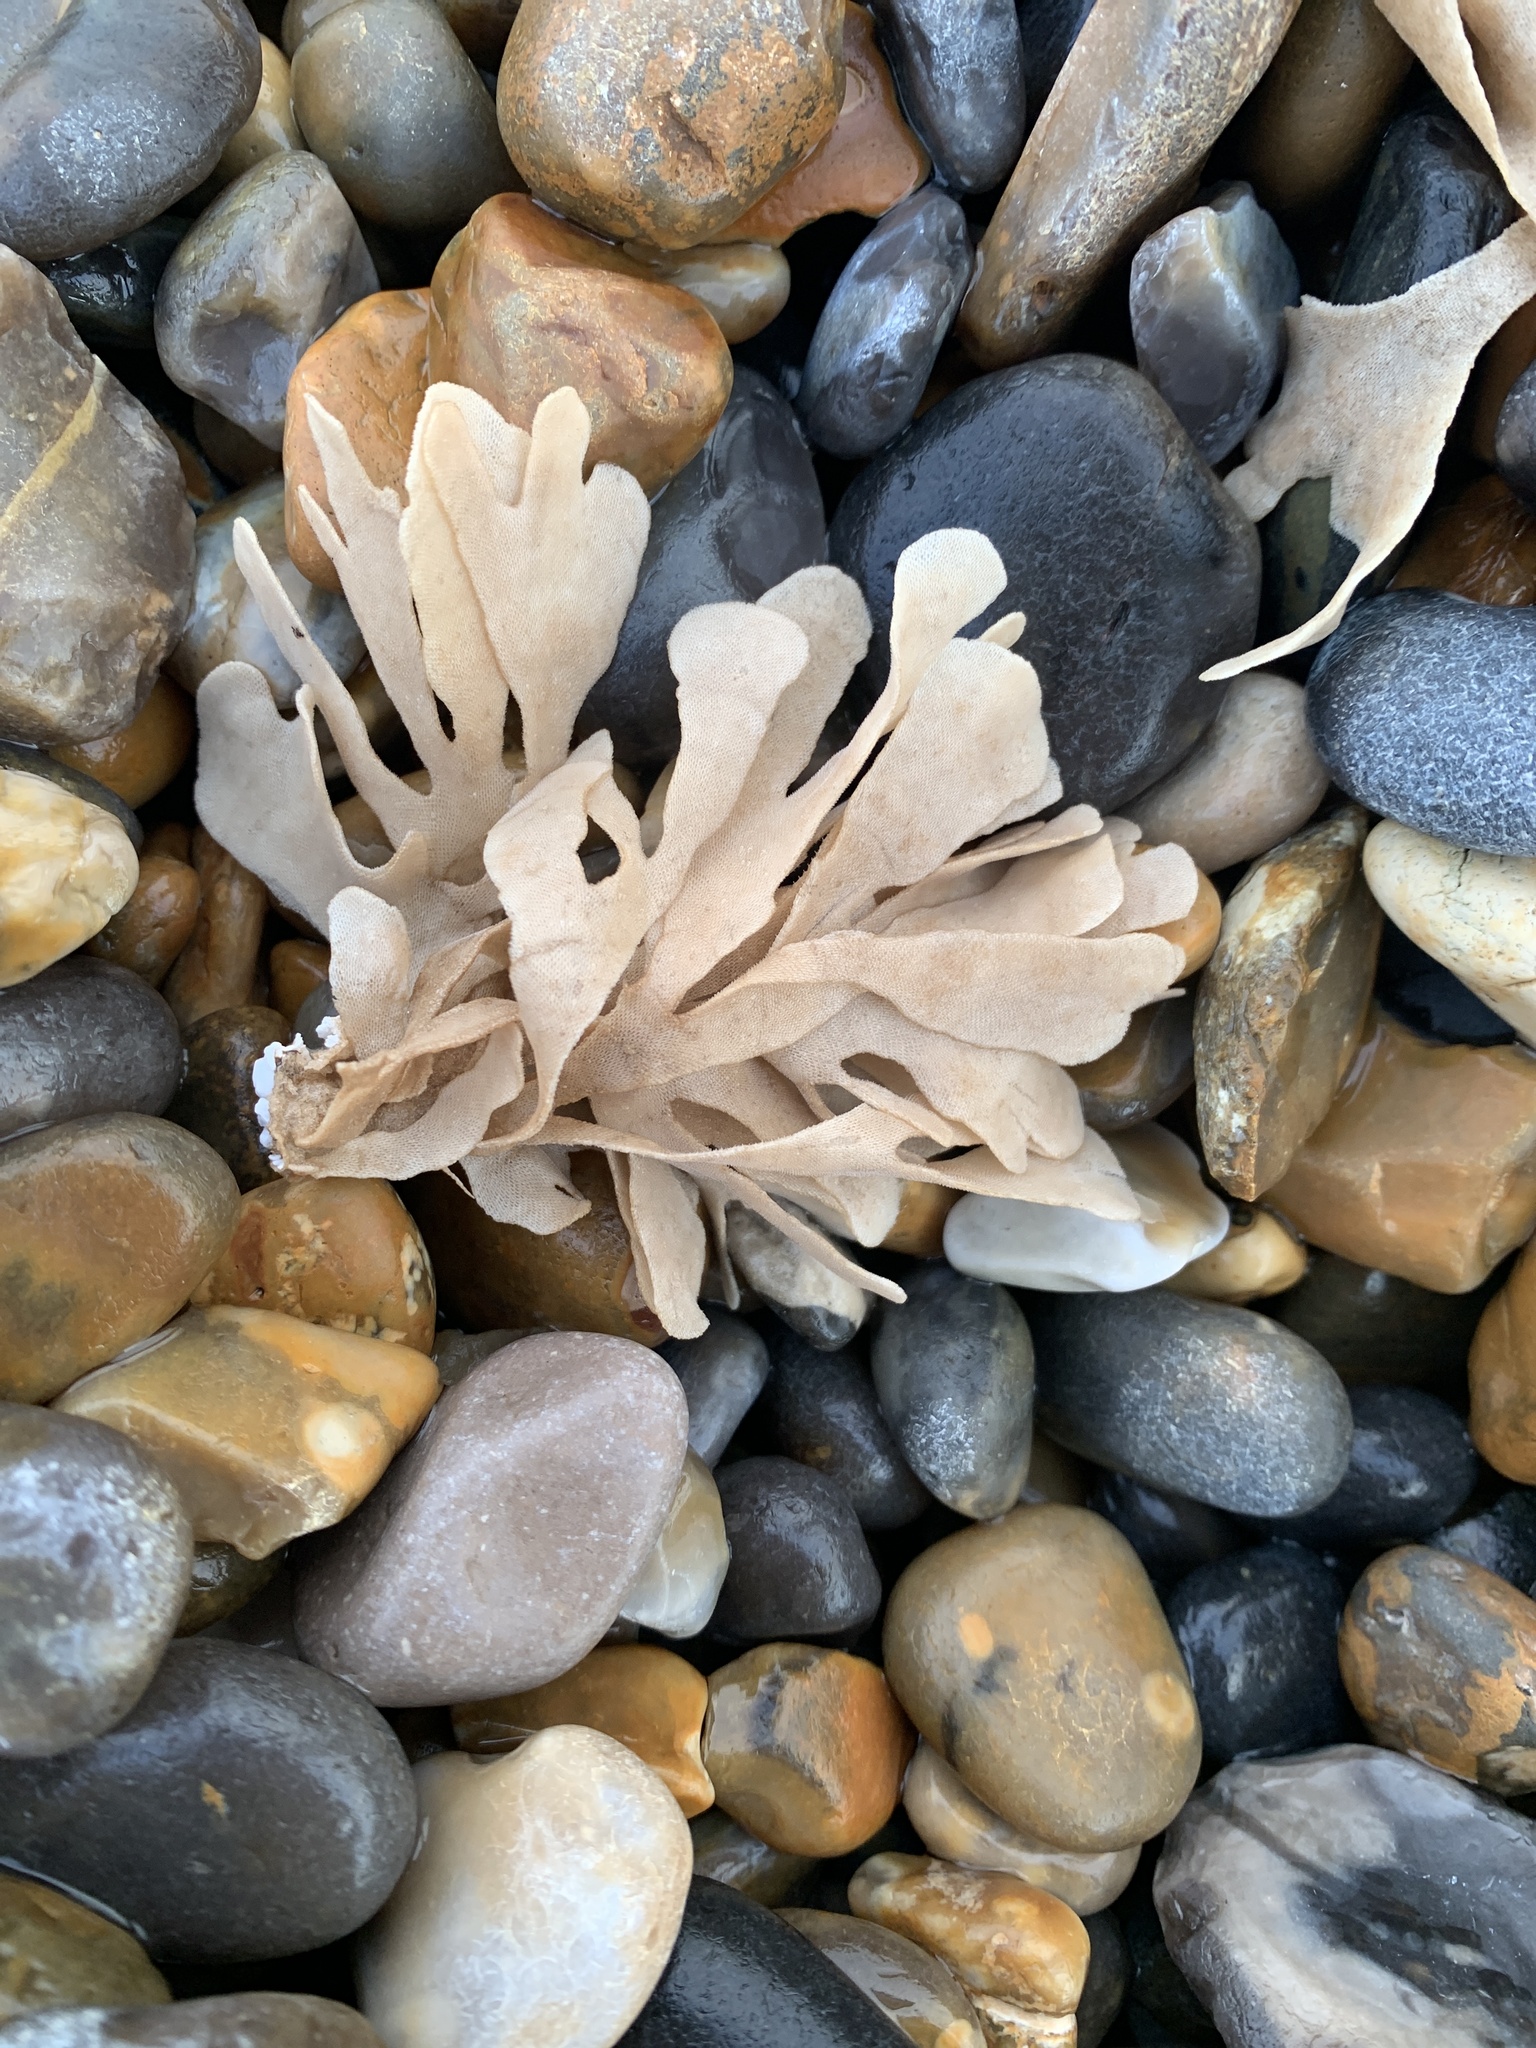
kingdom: Animalia
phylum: Bryozoa
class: Gymnolaemata
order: Cheilostomatida
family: Flustridae
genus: Flustra
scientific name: Flustra foliacea
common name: Hornwrack
